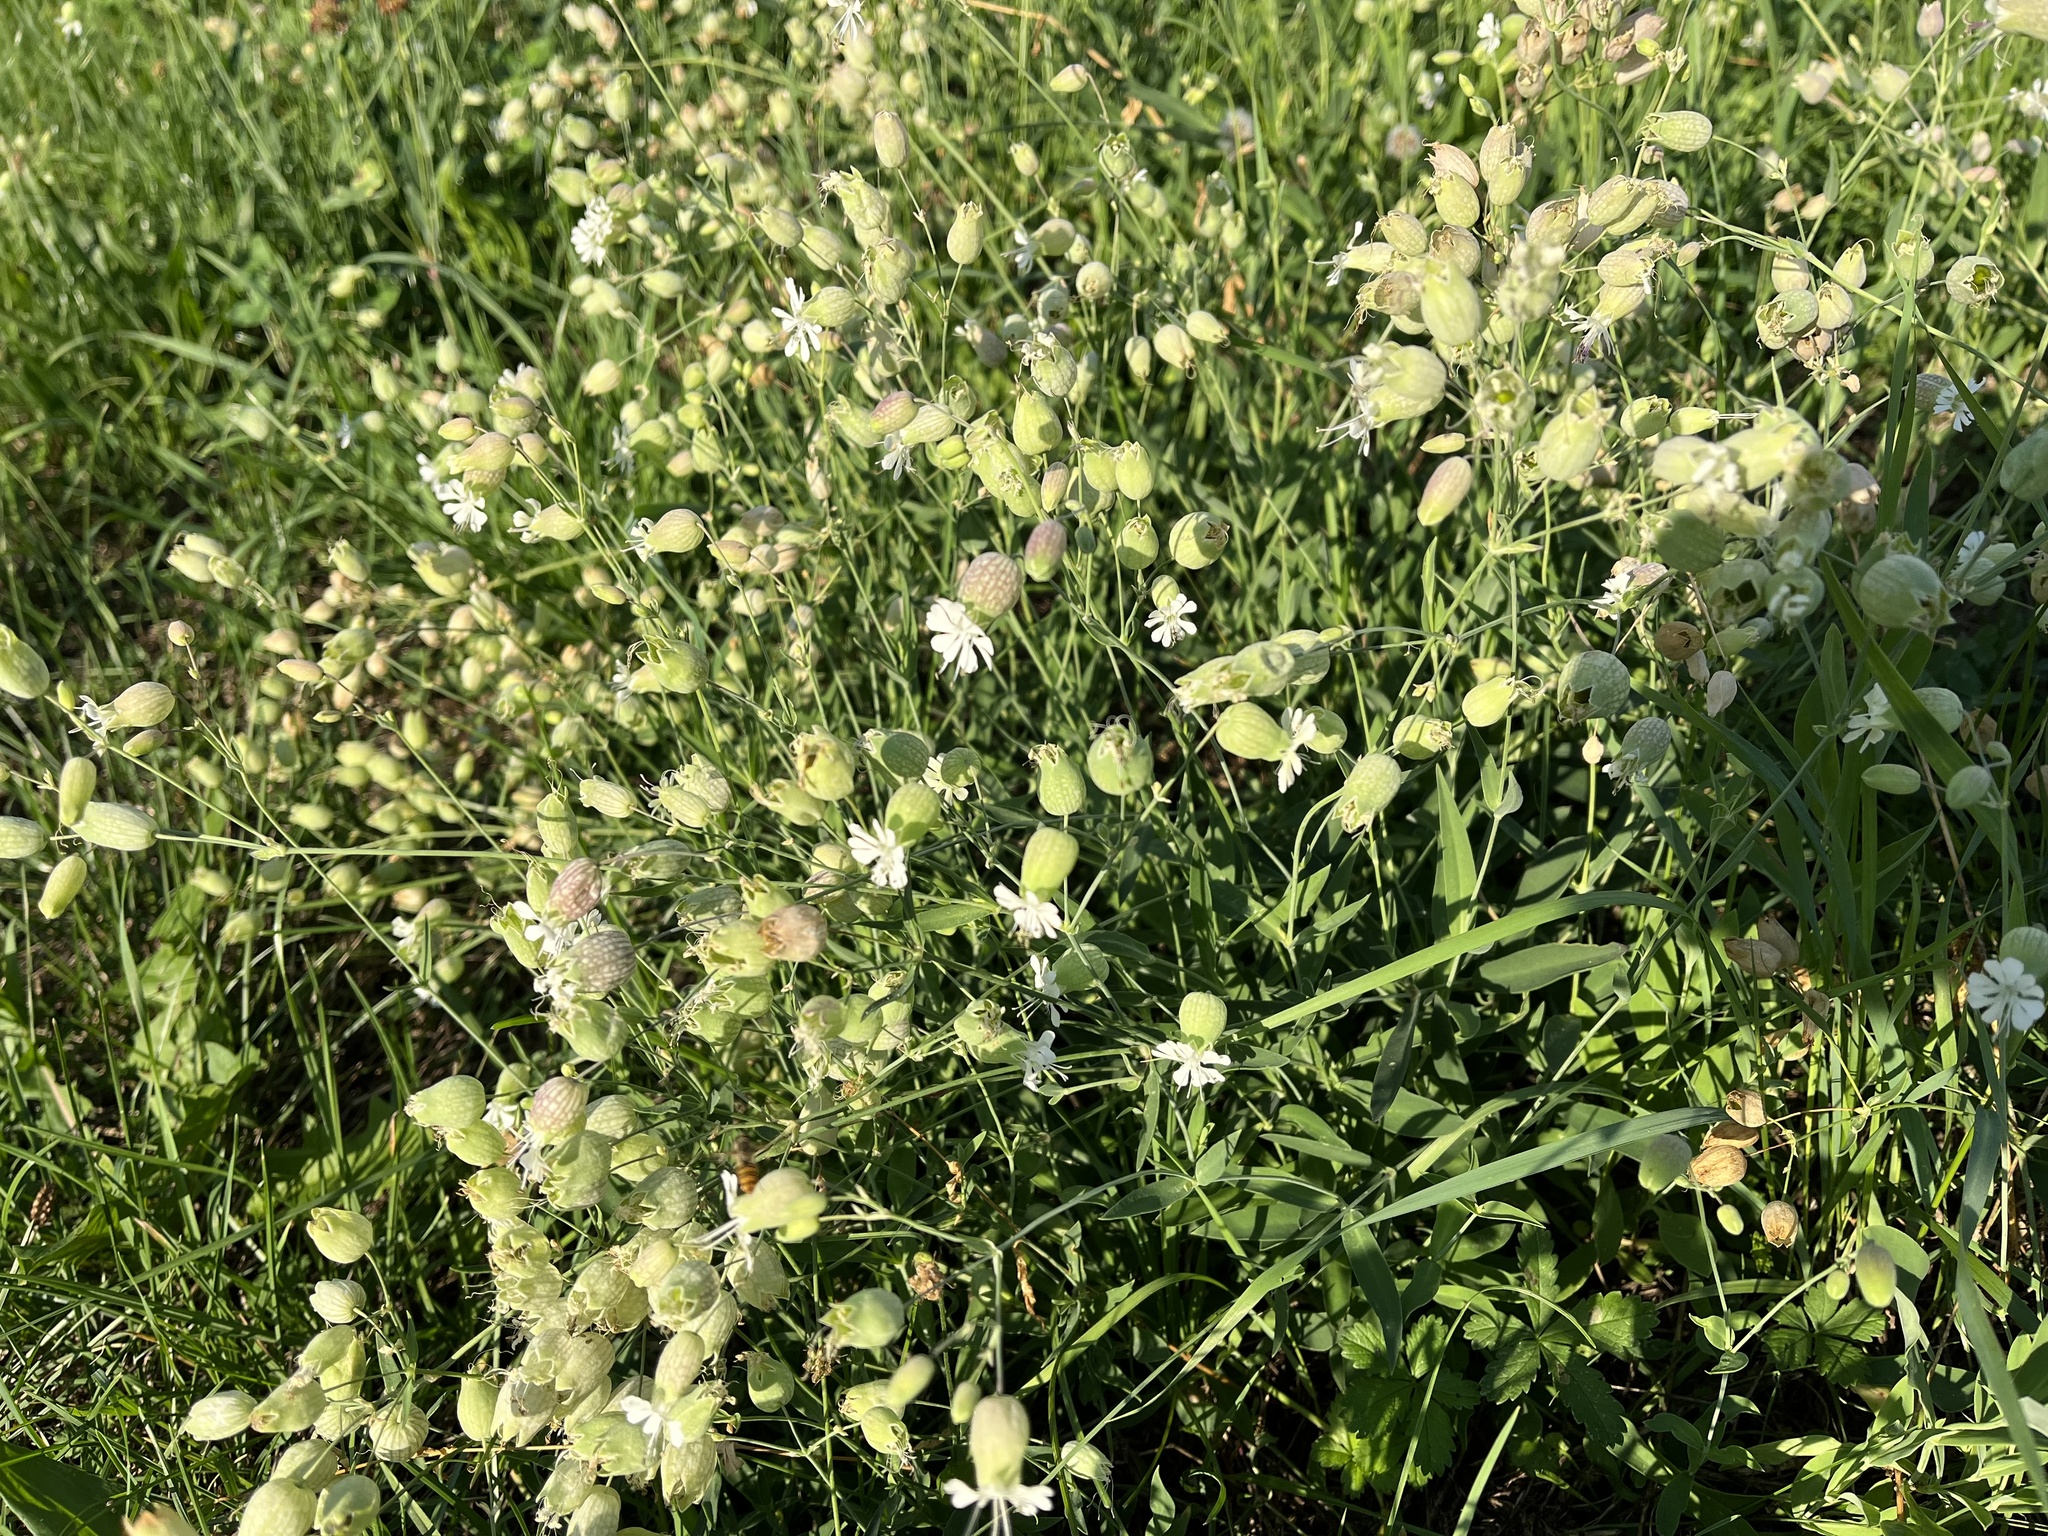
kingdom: Plantae
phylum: Tracheophyta
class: Magnoliopsida
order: Caryophyllales
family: Caryophyllaceae
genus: Silene
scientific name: Silene vulgaris
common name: Bladder campion
